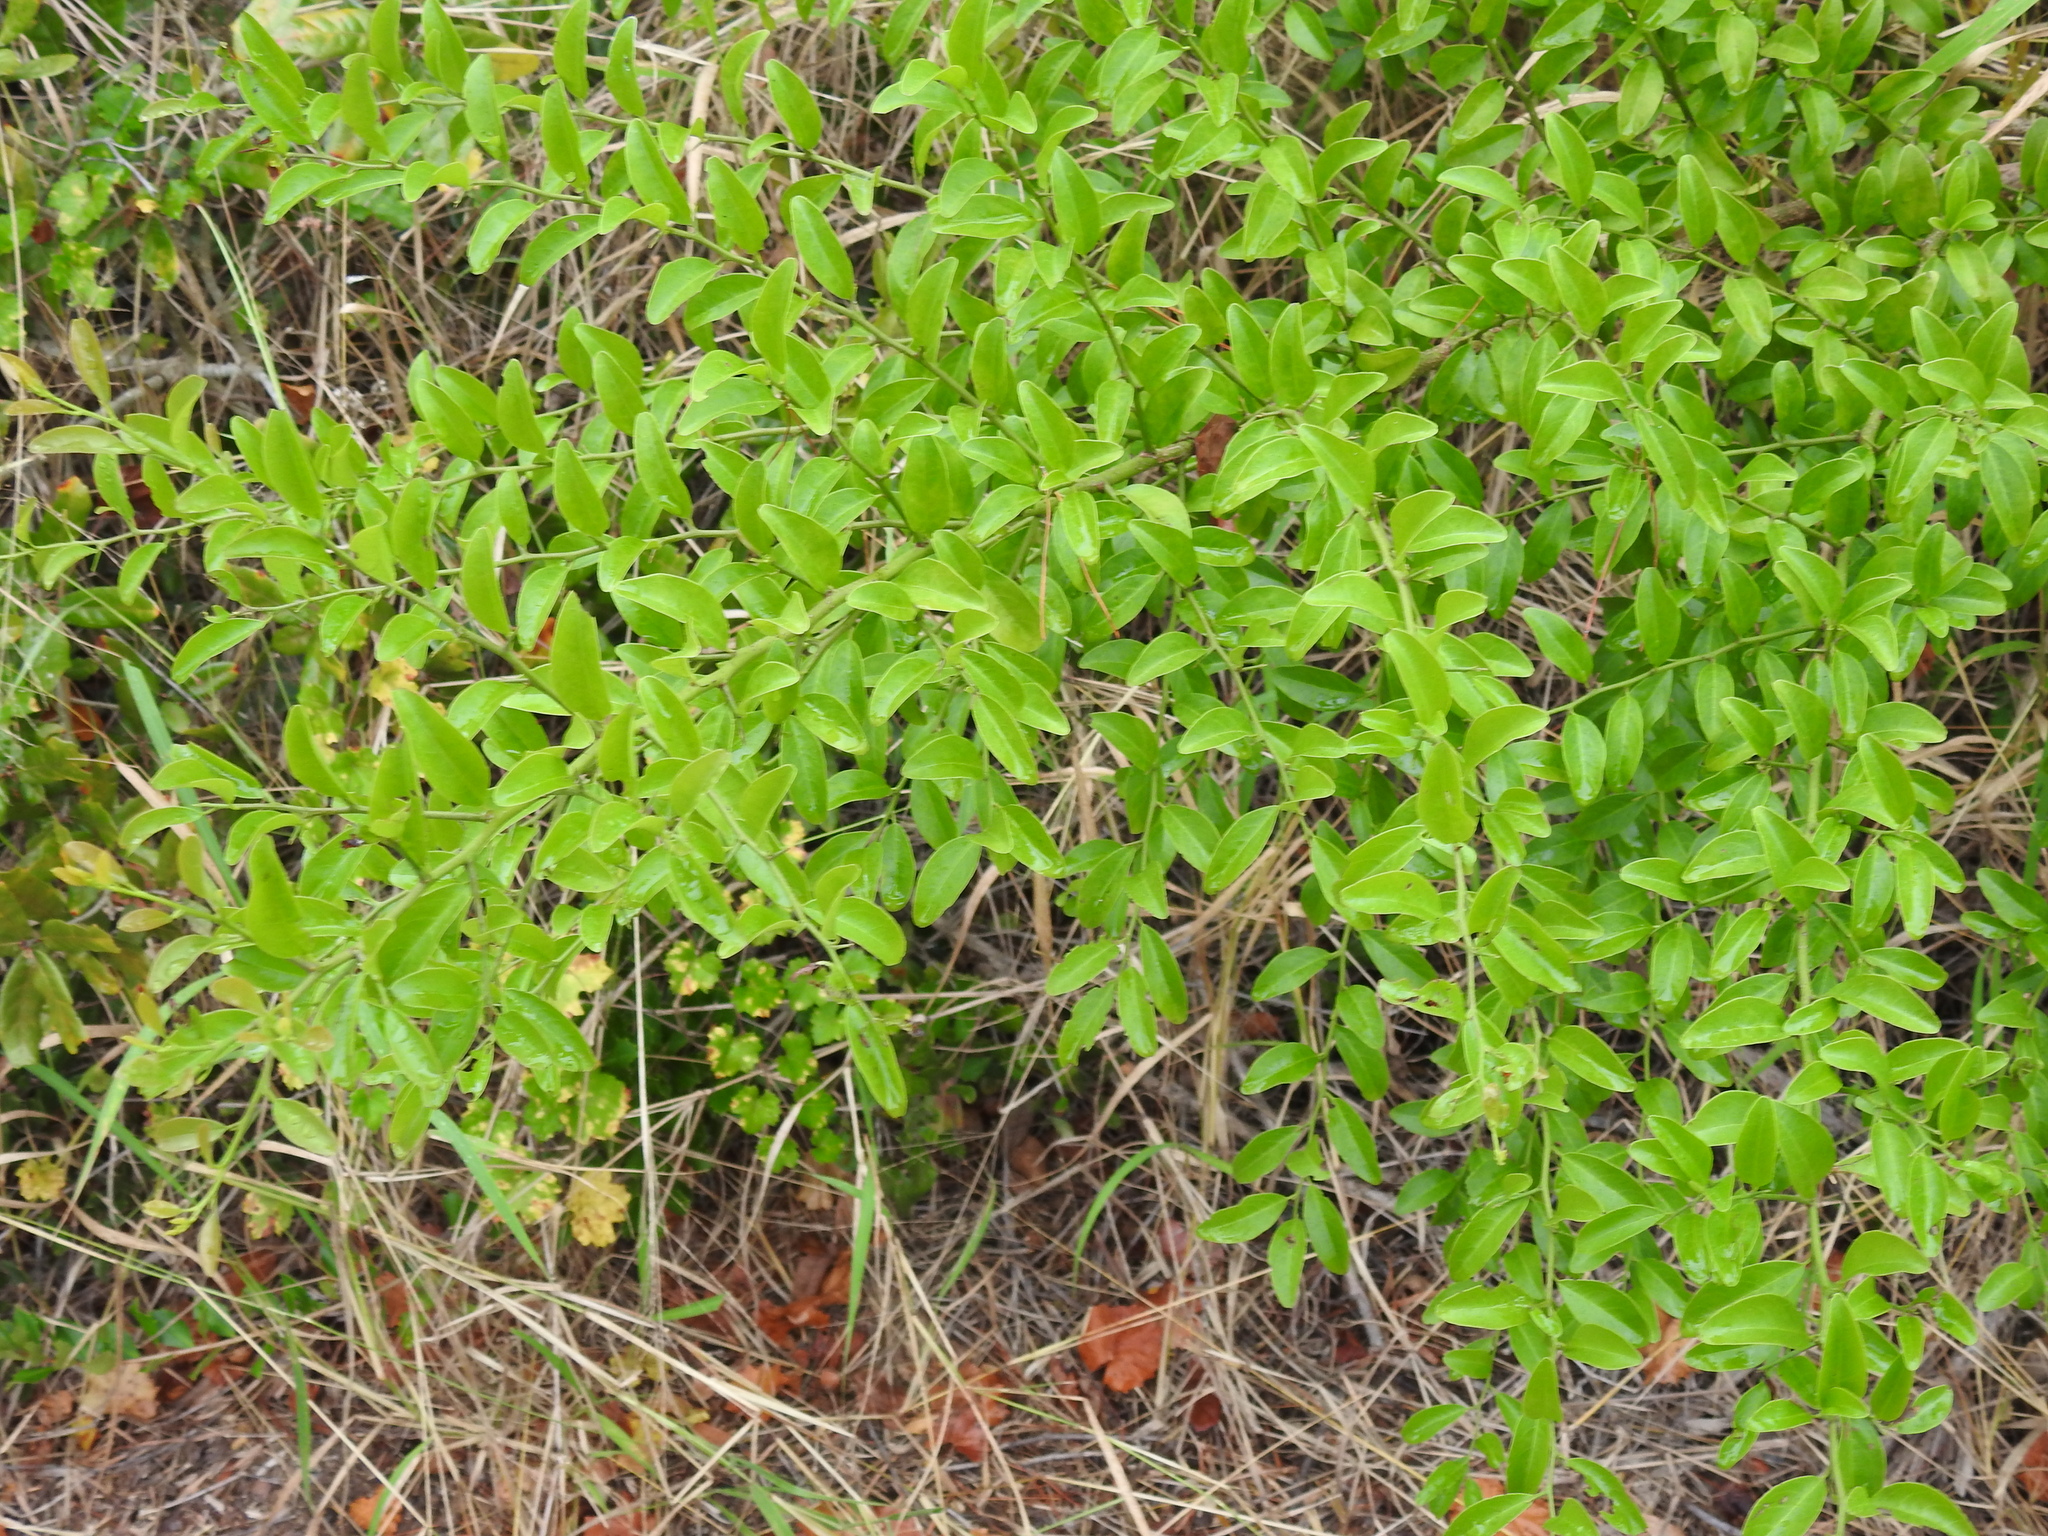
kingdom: Plantae
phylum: Tracheophyta
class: Magnoliopsida
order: Santalales
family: Ximeniaceae
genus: Ximenia
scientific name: Ximenia americana
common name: Tallowwood
